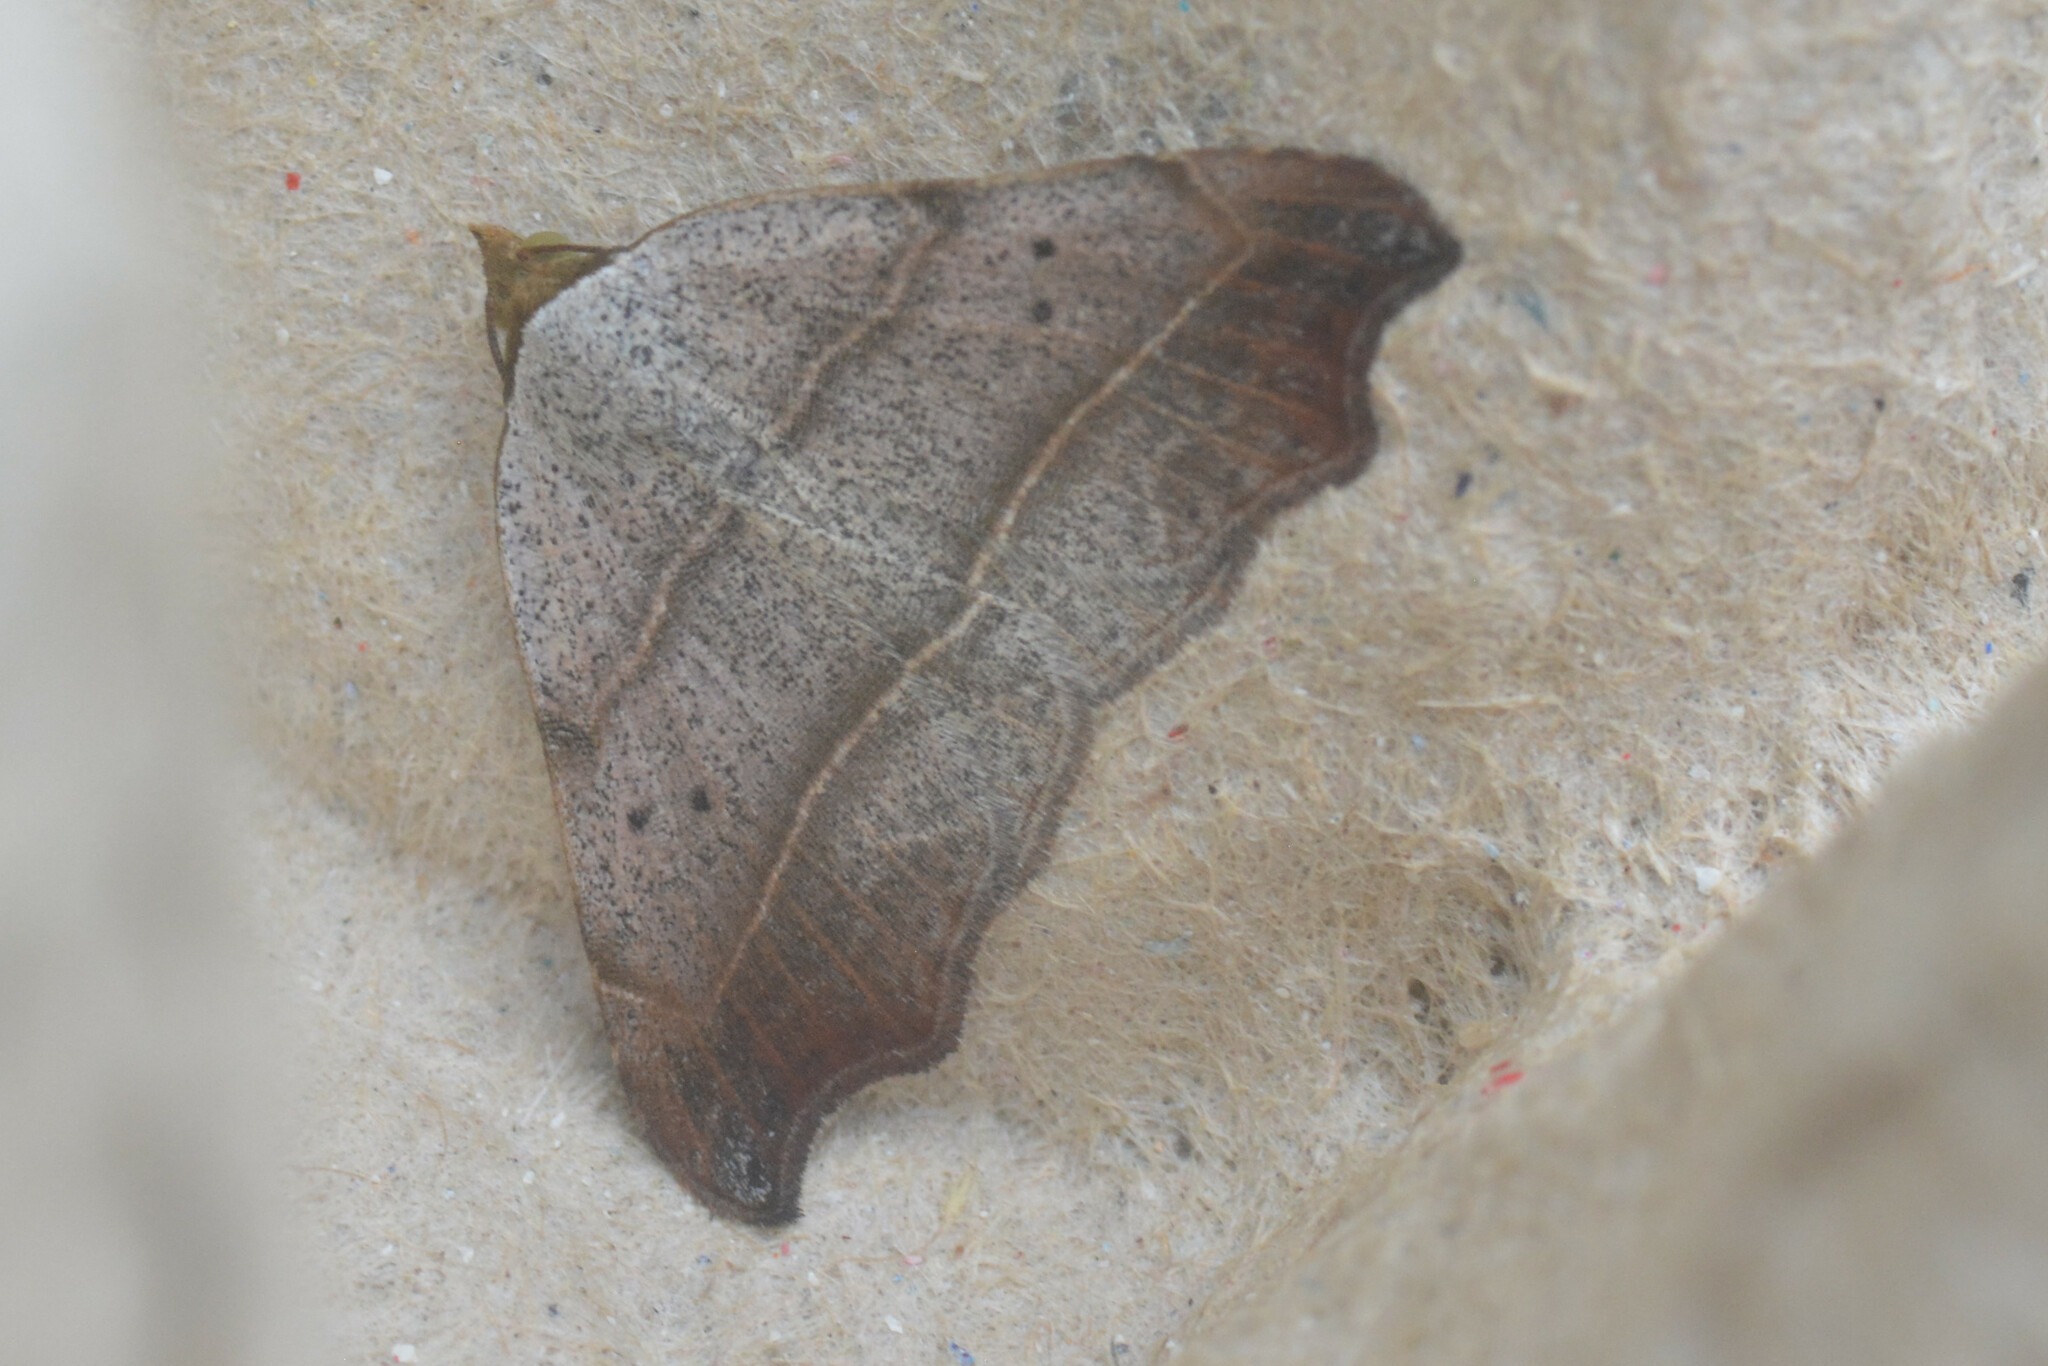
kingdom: Animalia
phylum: Arthropoda
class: Insecta
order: Lepidoptera
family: Erebidae
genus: Laspeyria
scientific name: Laspeyria flexula
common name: Beautiful hook-tip
